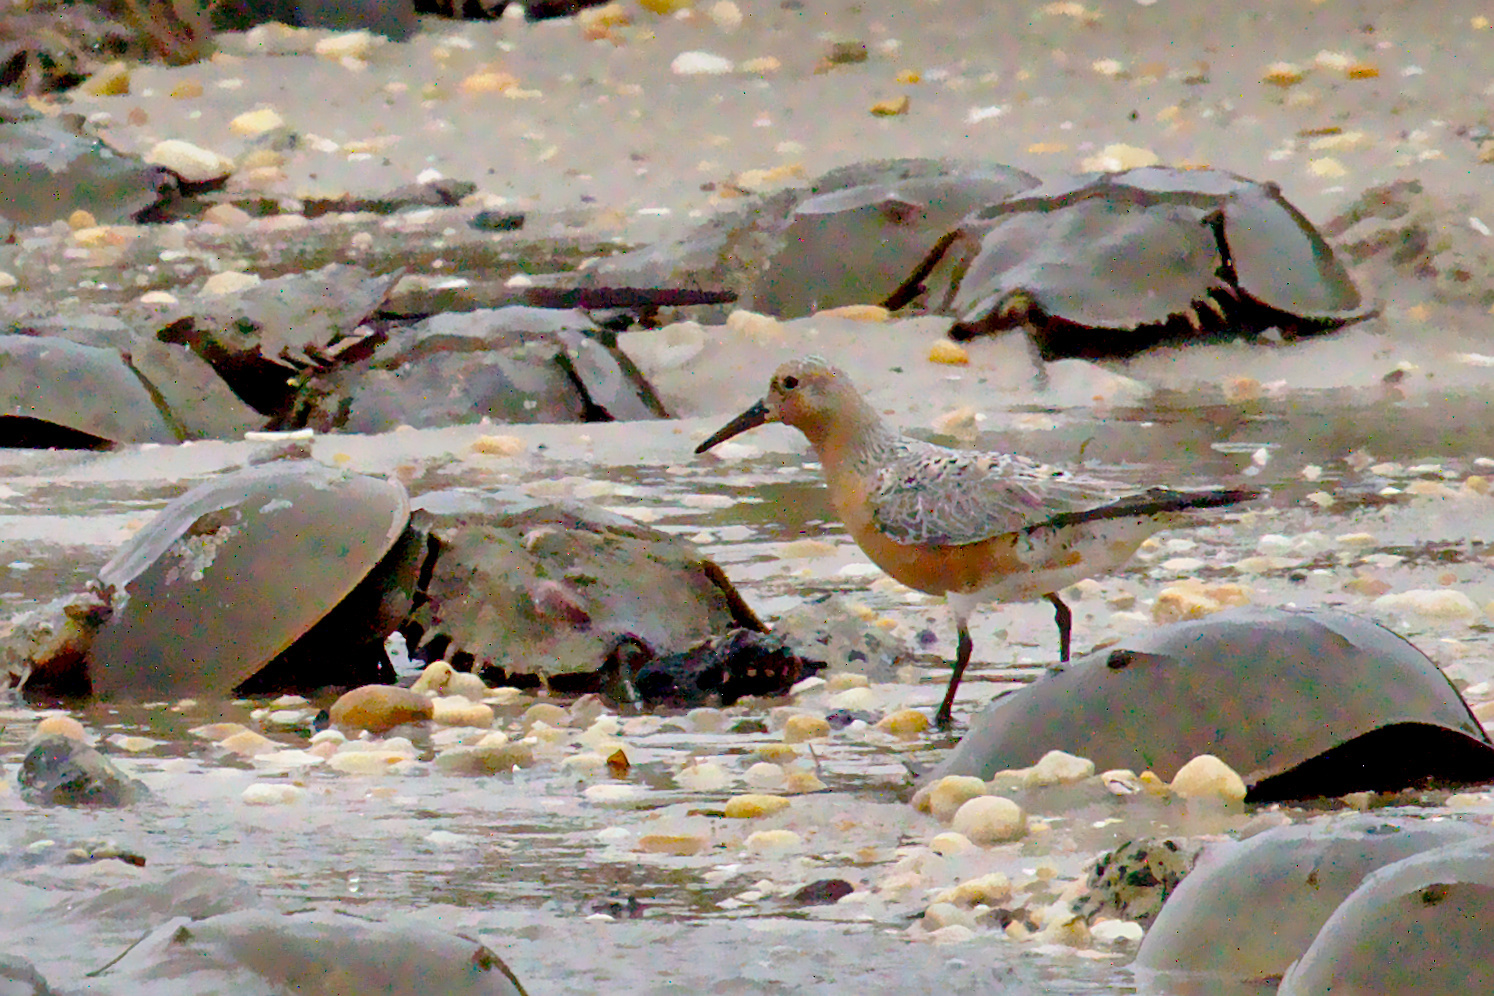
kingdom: Animalia
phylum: Chordata
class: Aves
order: Charadriiformes
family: Scolopacidae
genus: Calidris
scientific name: Calidris canutus
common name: Red knot
